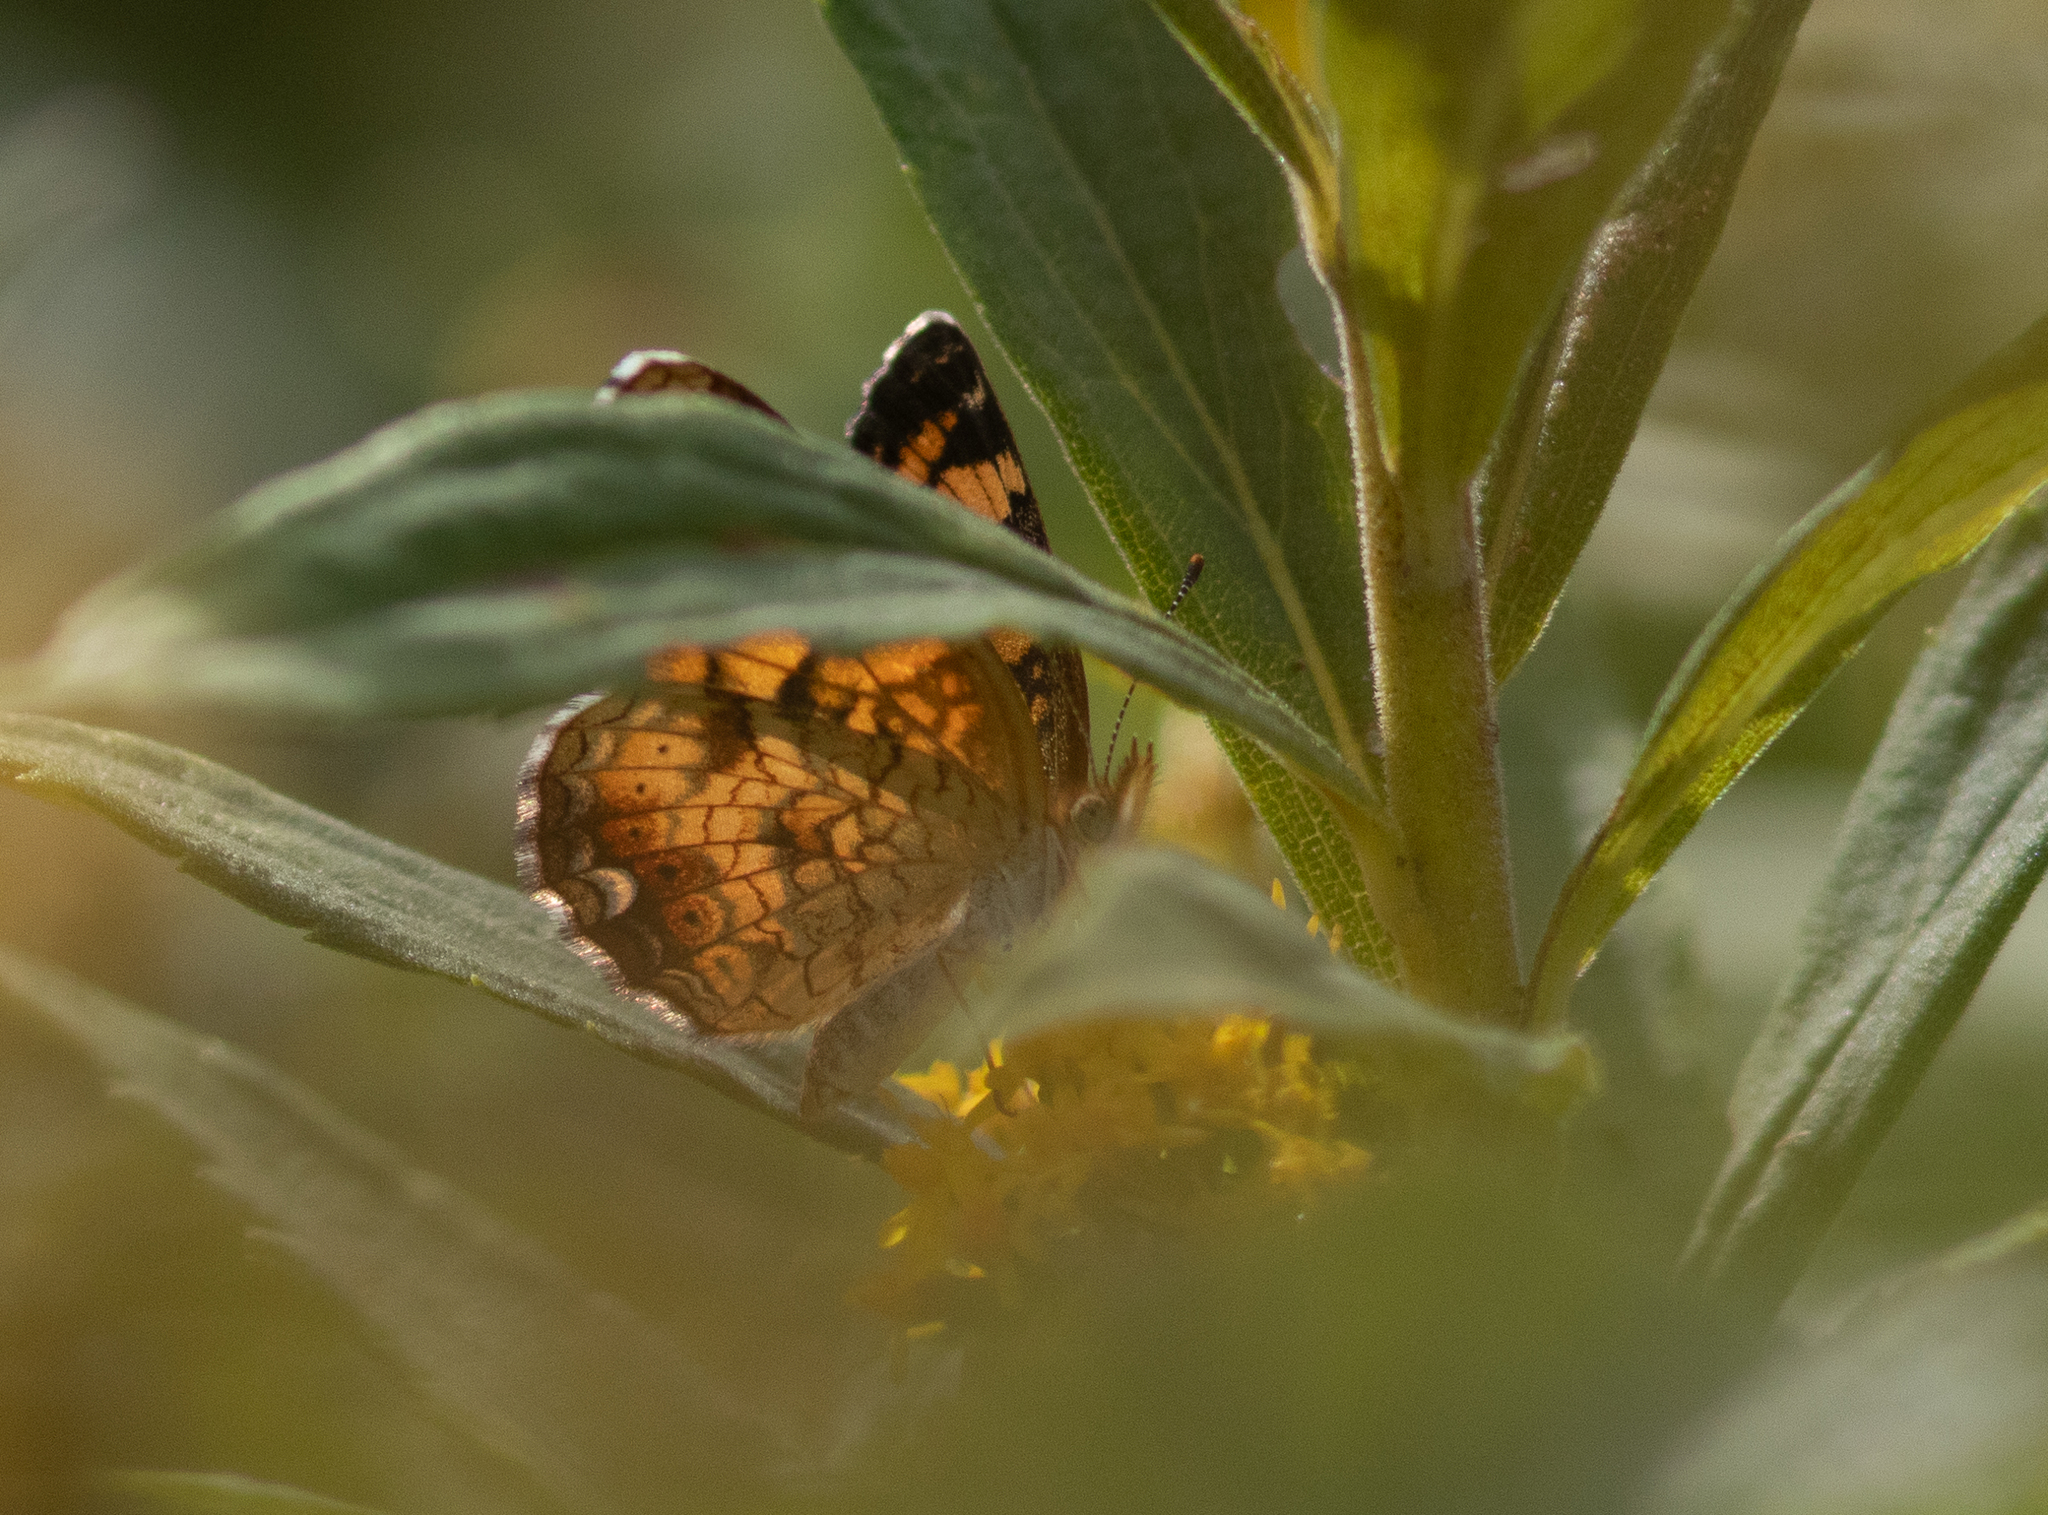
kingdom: Animalia
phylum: Arthropoda
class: Insecta
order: Lepidoptera
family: Nymphalidae
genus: Phyciodes
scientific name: Phyciodes tharos
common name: Pearl crescent
